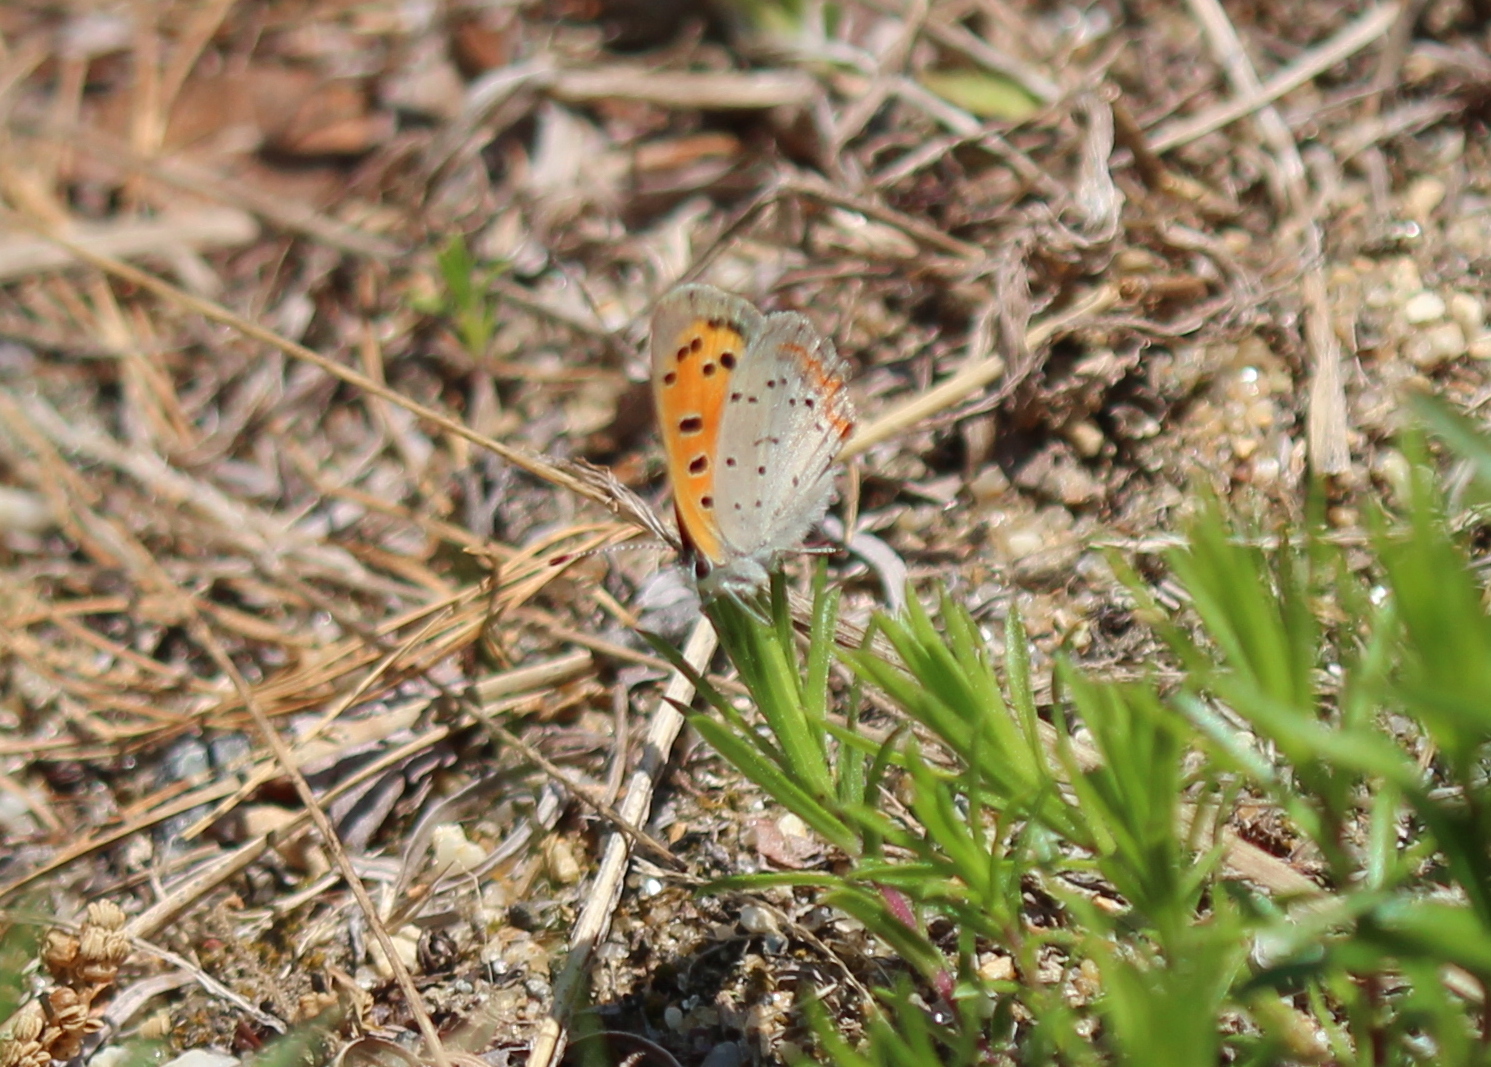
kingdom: Animalia
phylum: Arthropoda
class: Insecta
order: Lepidoptera
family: Lycaenidae
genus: Lycaena
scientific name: Lycaena hypophlaeas
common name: American copper
